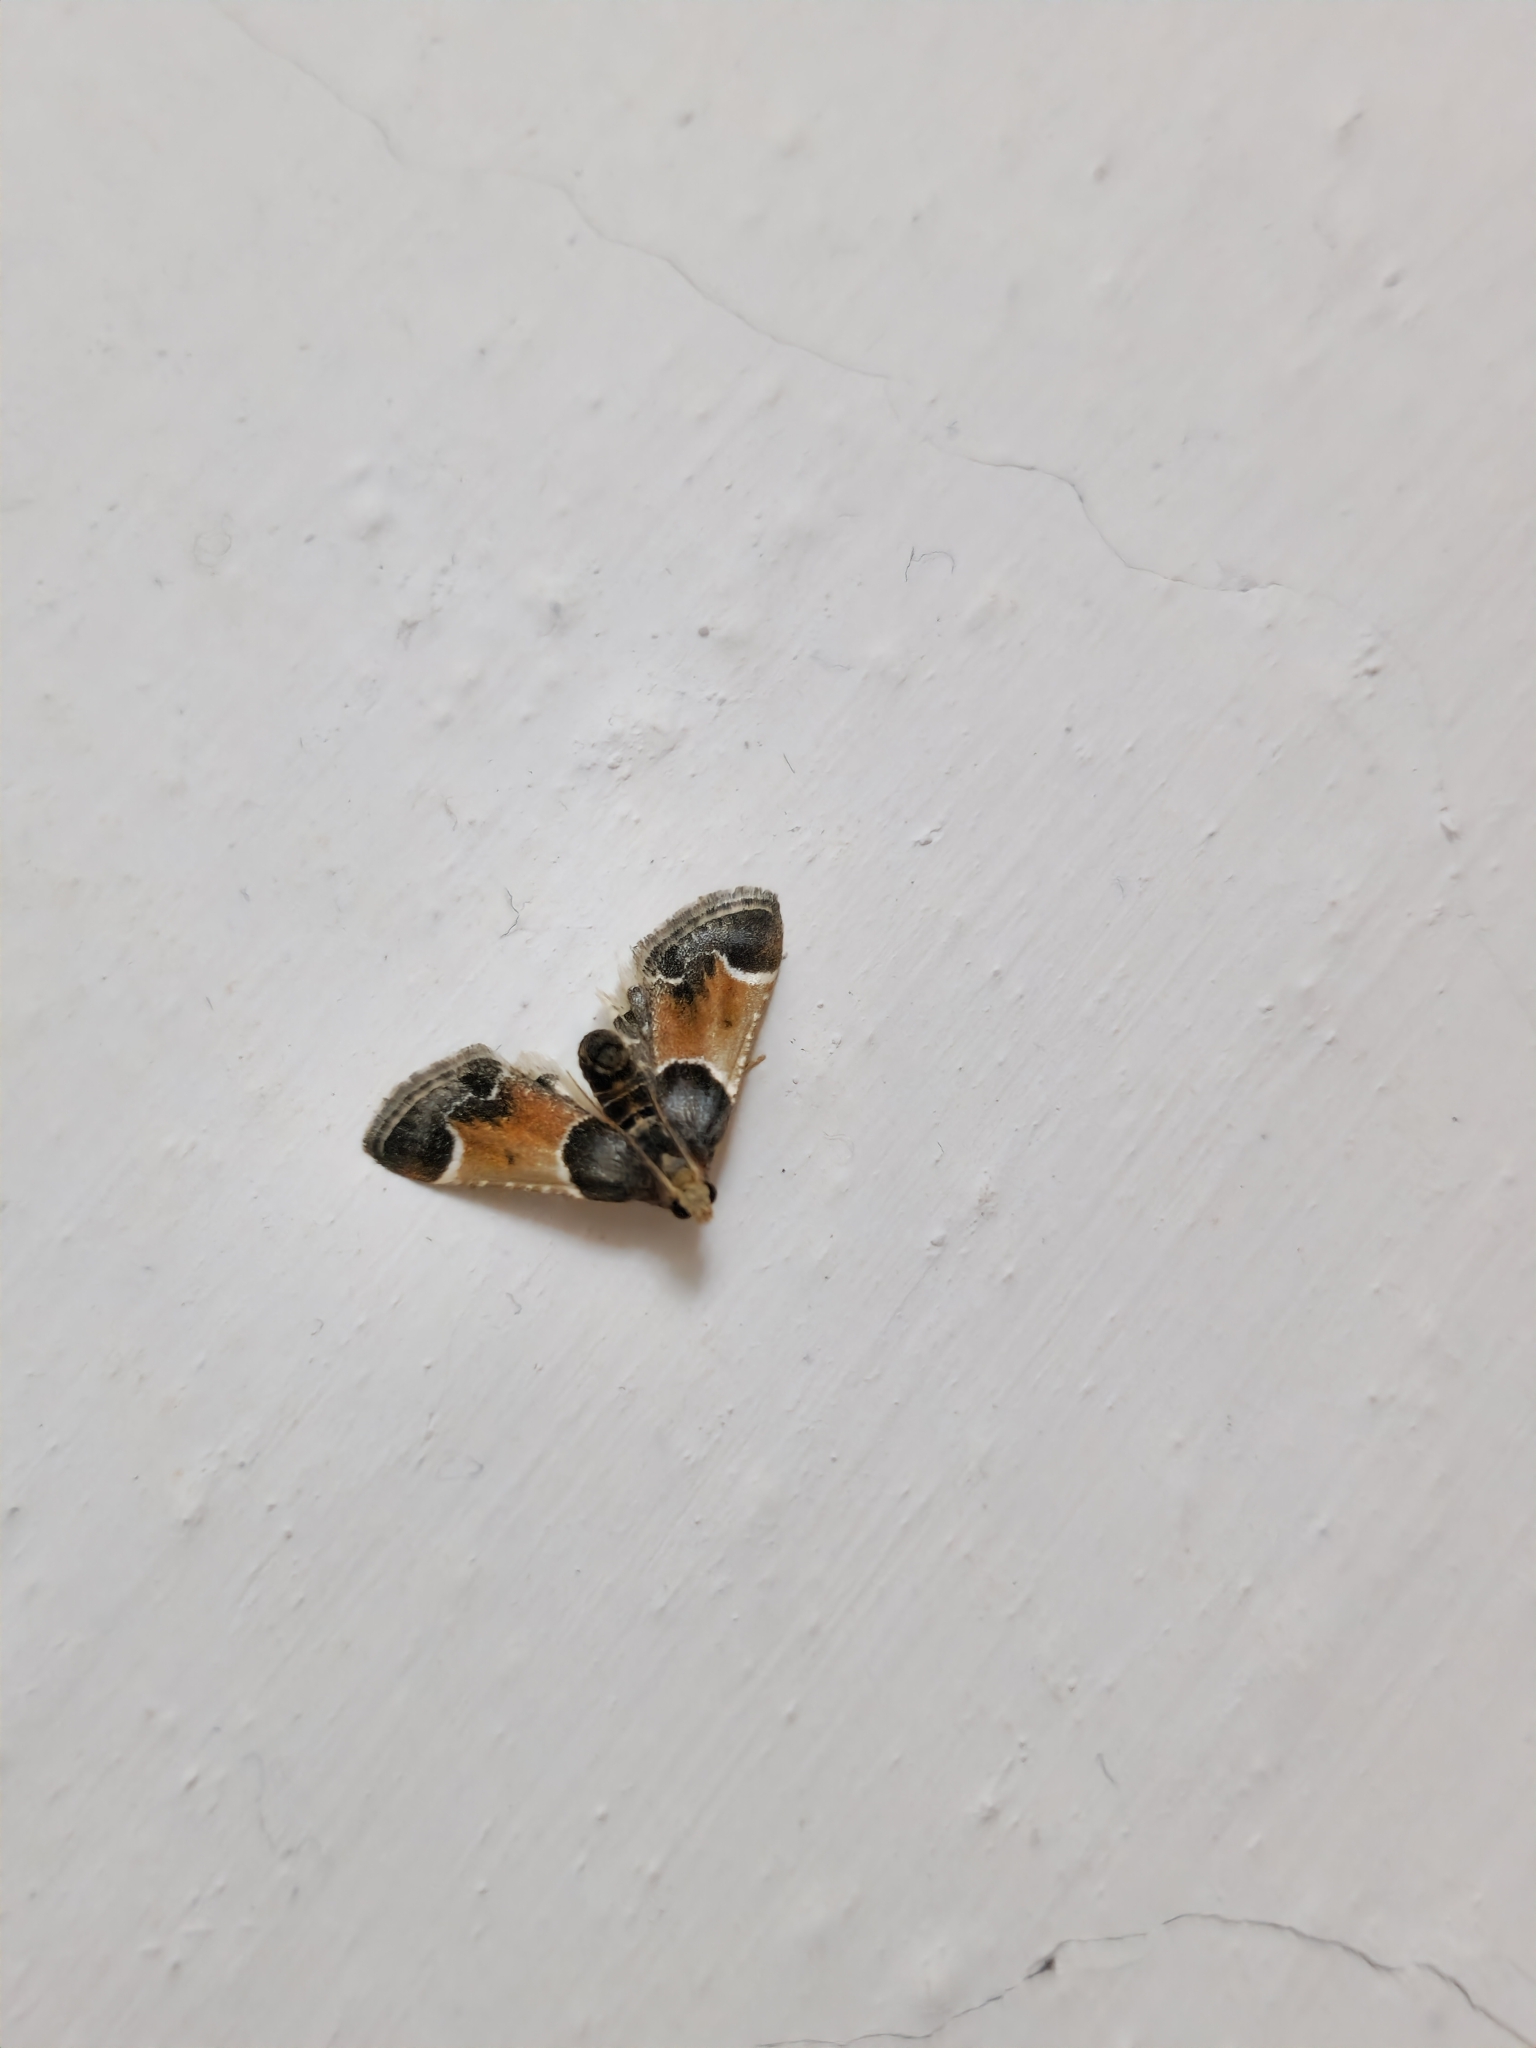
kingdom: Animalia
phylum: Arthropoda
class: Insecta
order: Lepidoptera
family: Pyralidae
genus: Pyralis
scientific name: Pyralis farinalis
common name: Meal moth
